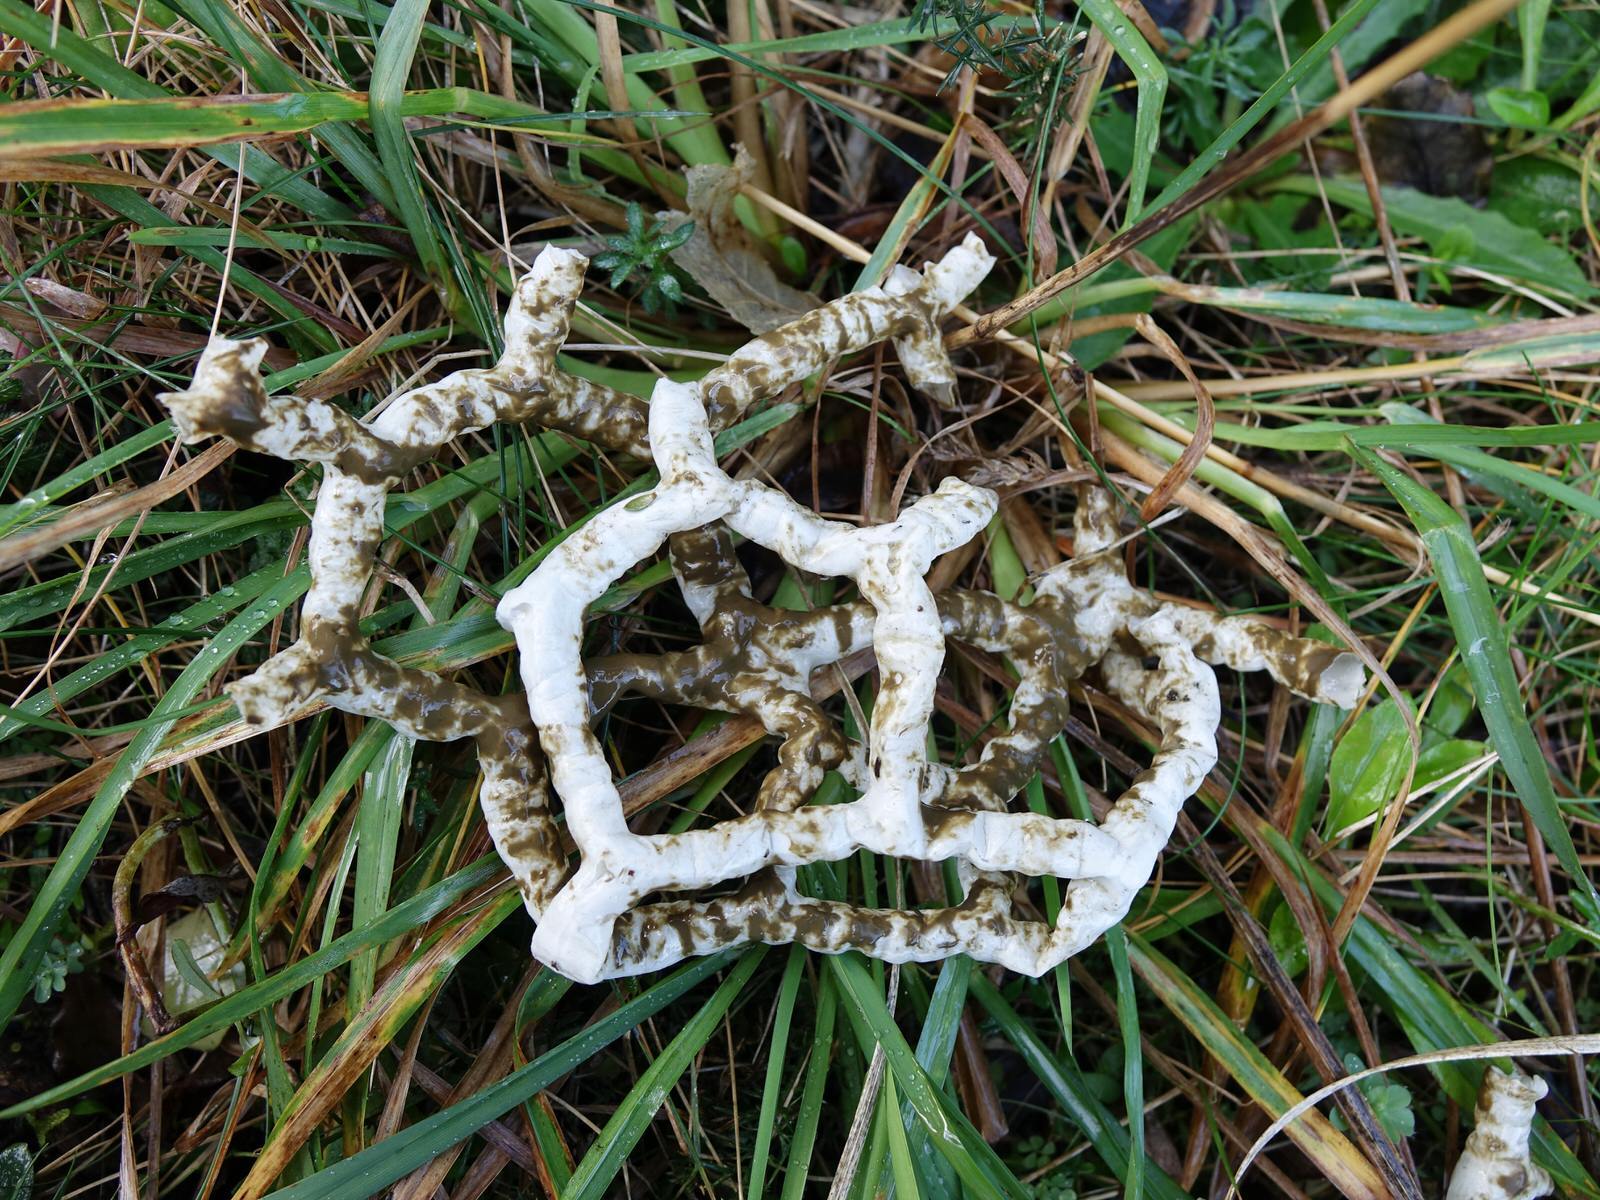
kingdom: Fungi
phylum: Basidiomycota
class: Agaricomycetes
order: Phallales
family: Phallaceae
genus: Ileodictyon
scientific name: Ileodictyon cibarium
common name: Basket fungus
